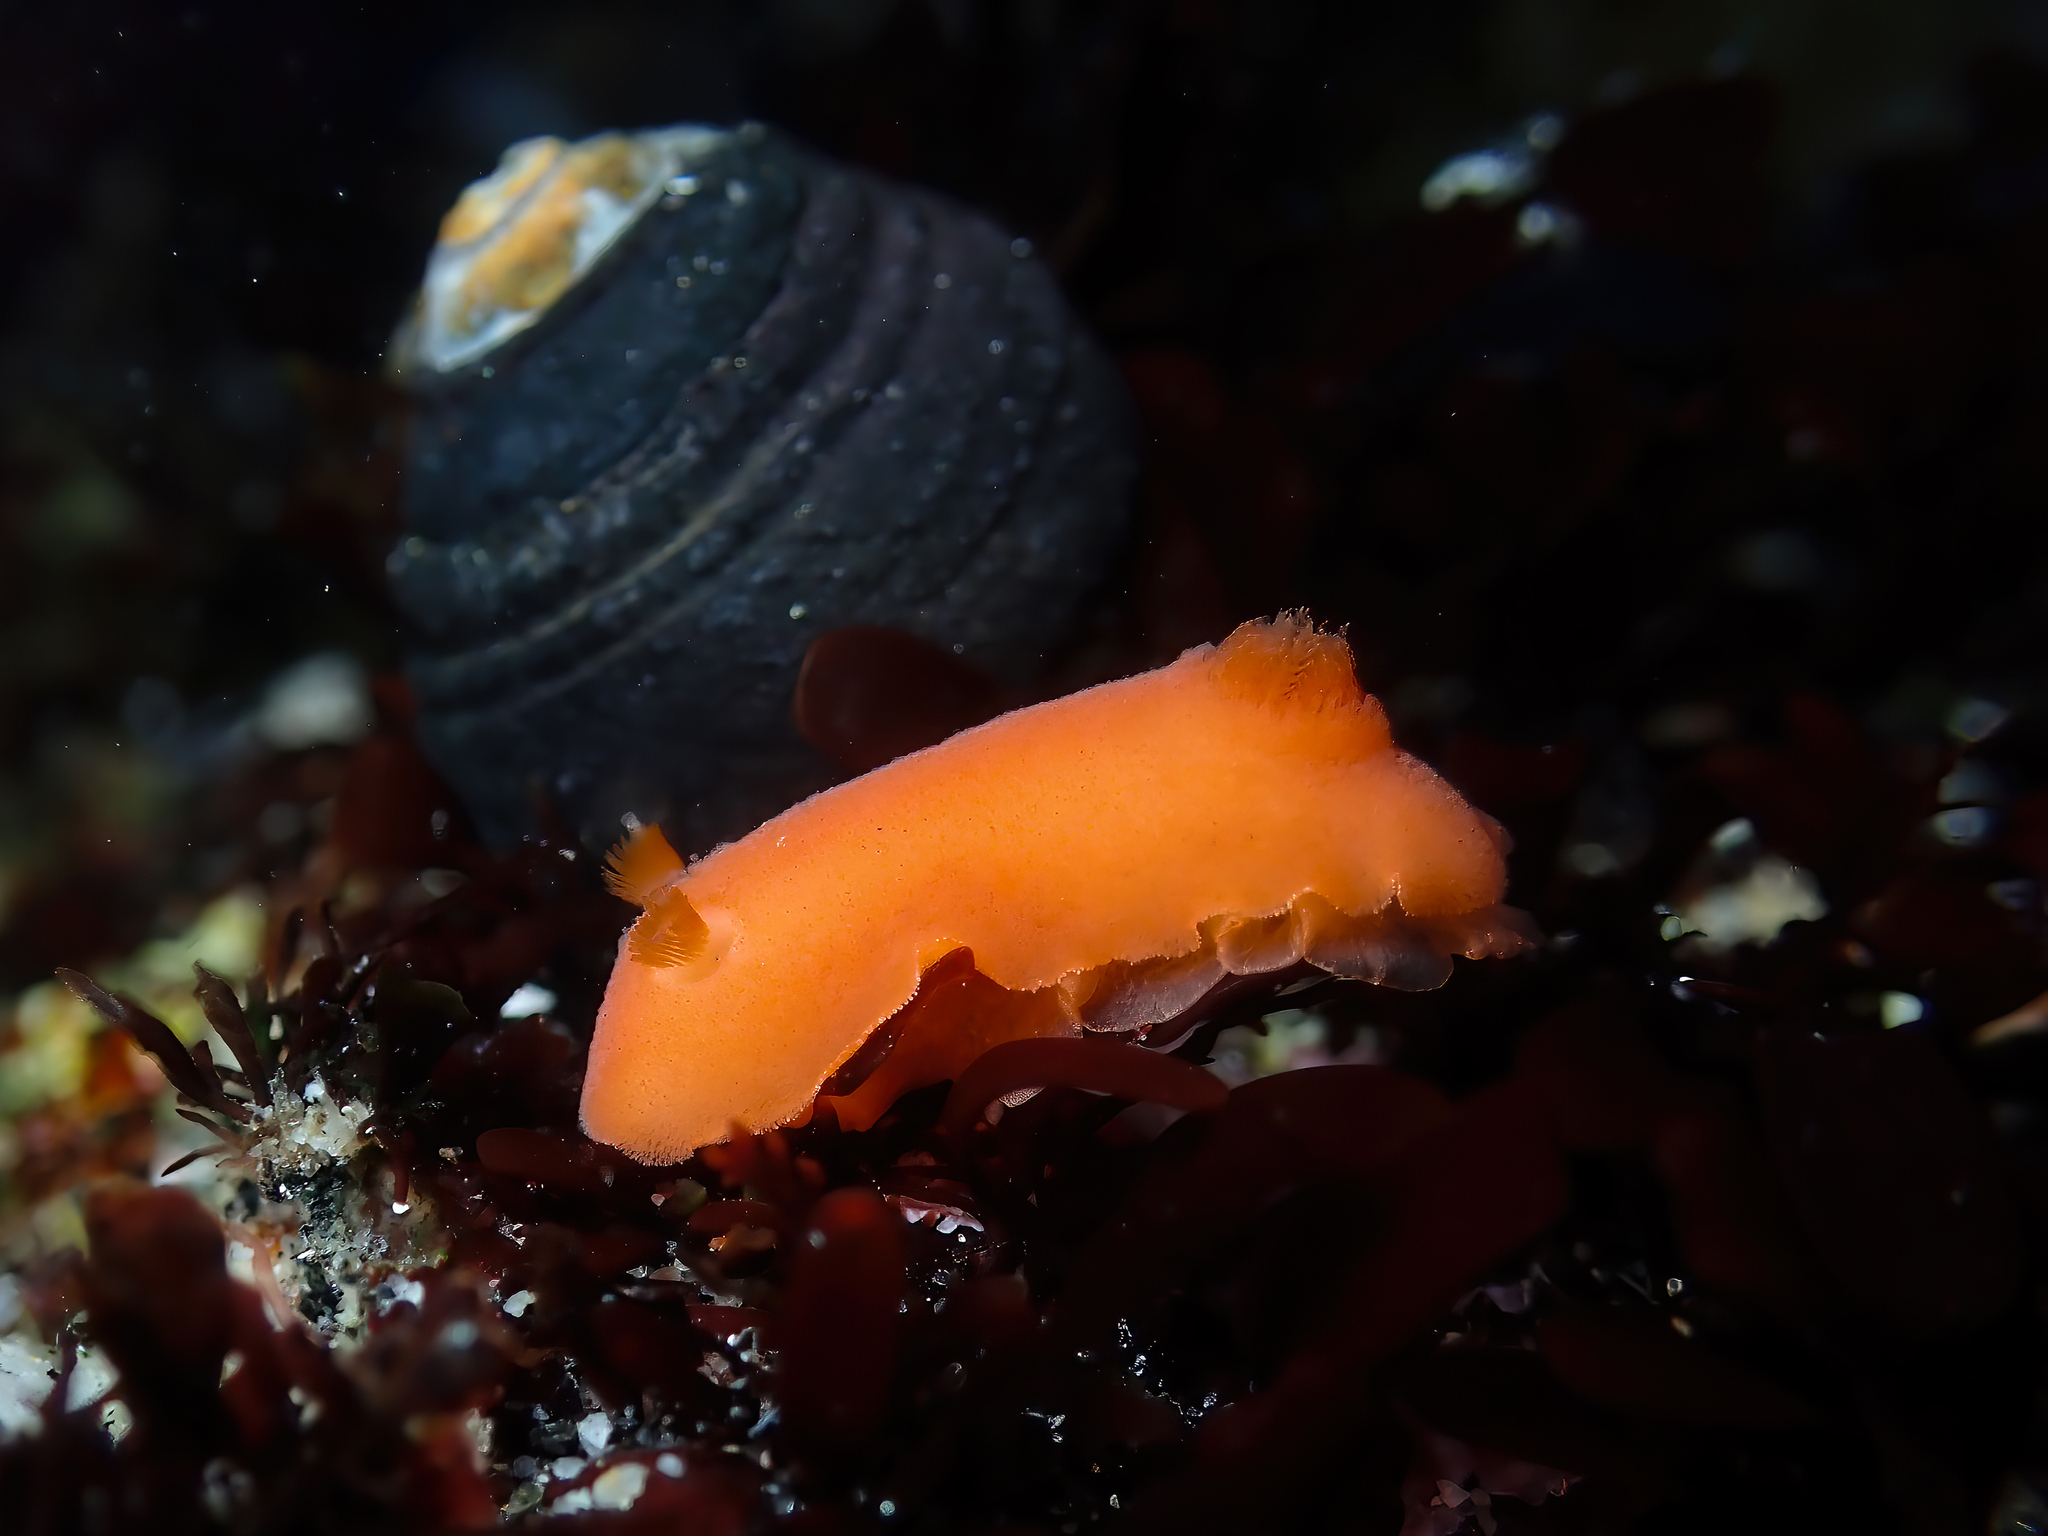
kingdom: Animalia
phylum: Mollusca
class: Gastropoda
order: Nudibranchia
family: Discodorididae
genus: Rostanga
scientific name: Rostanga pulchra
